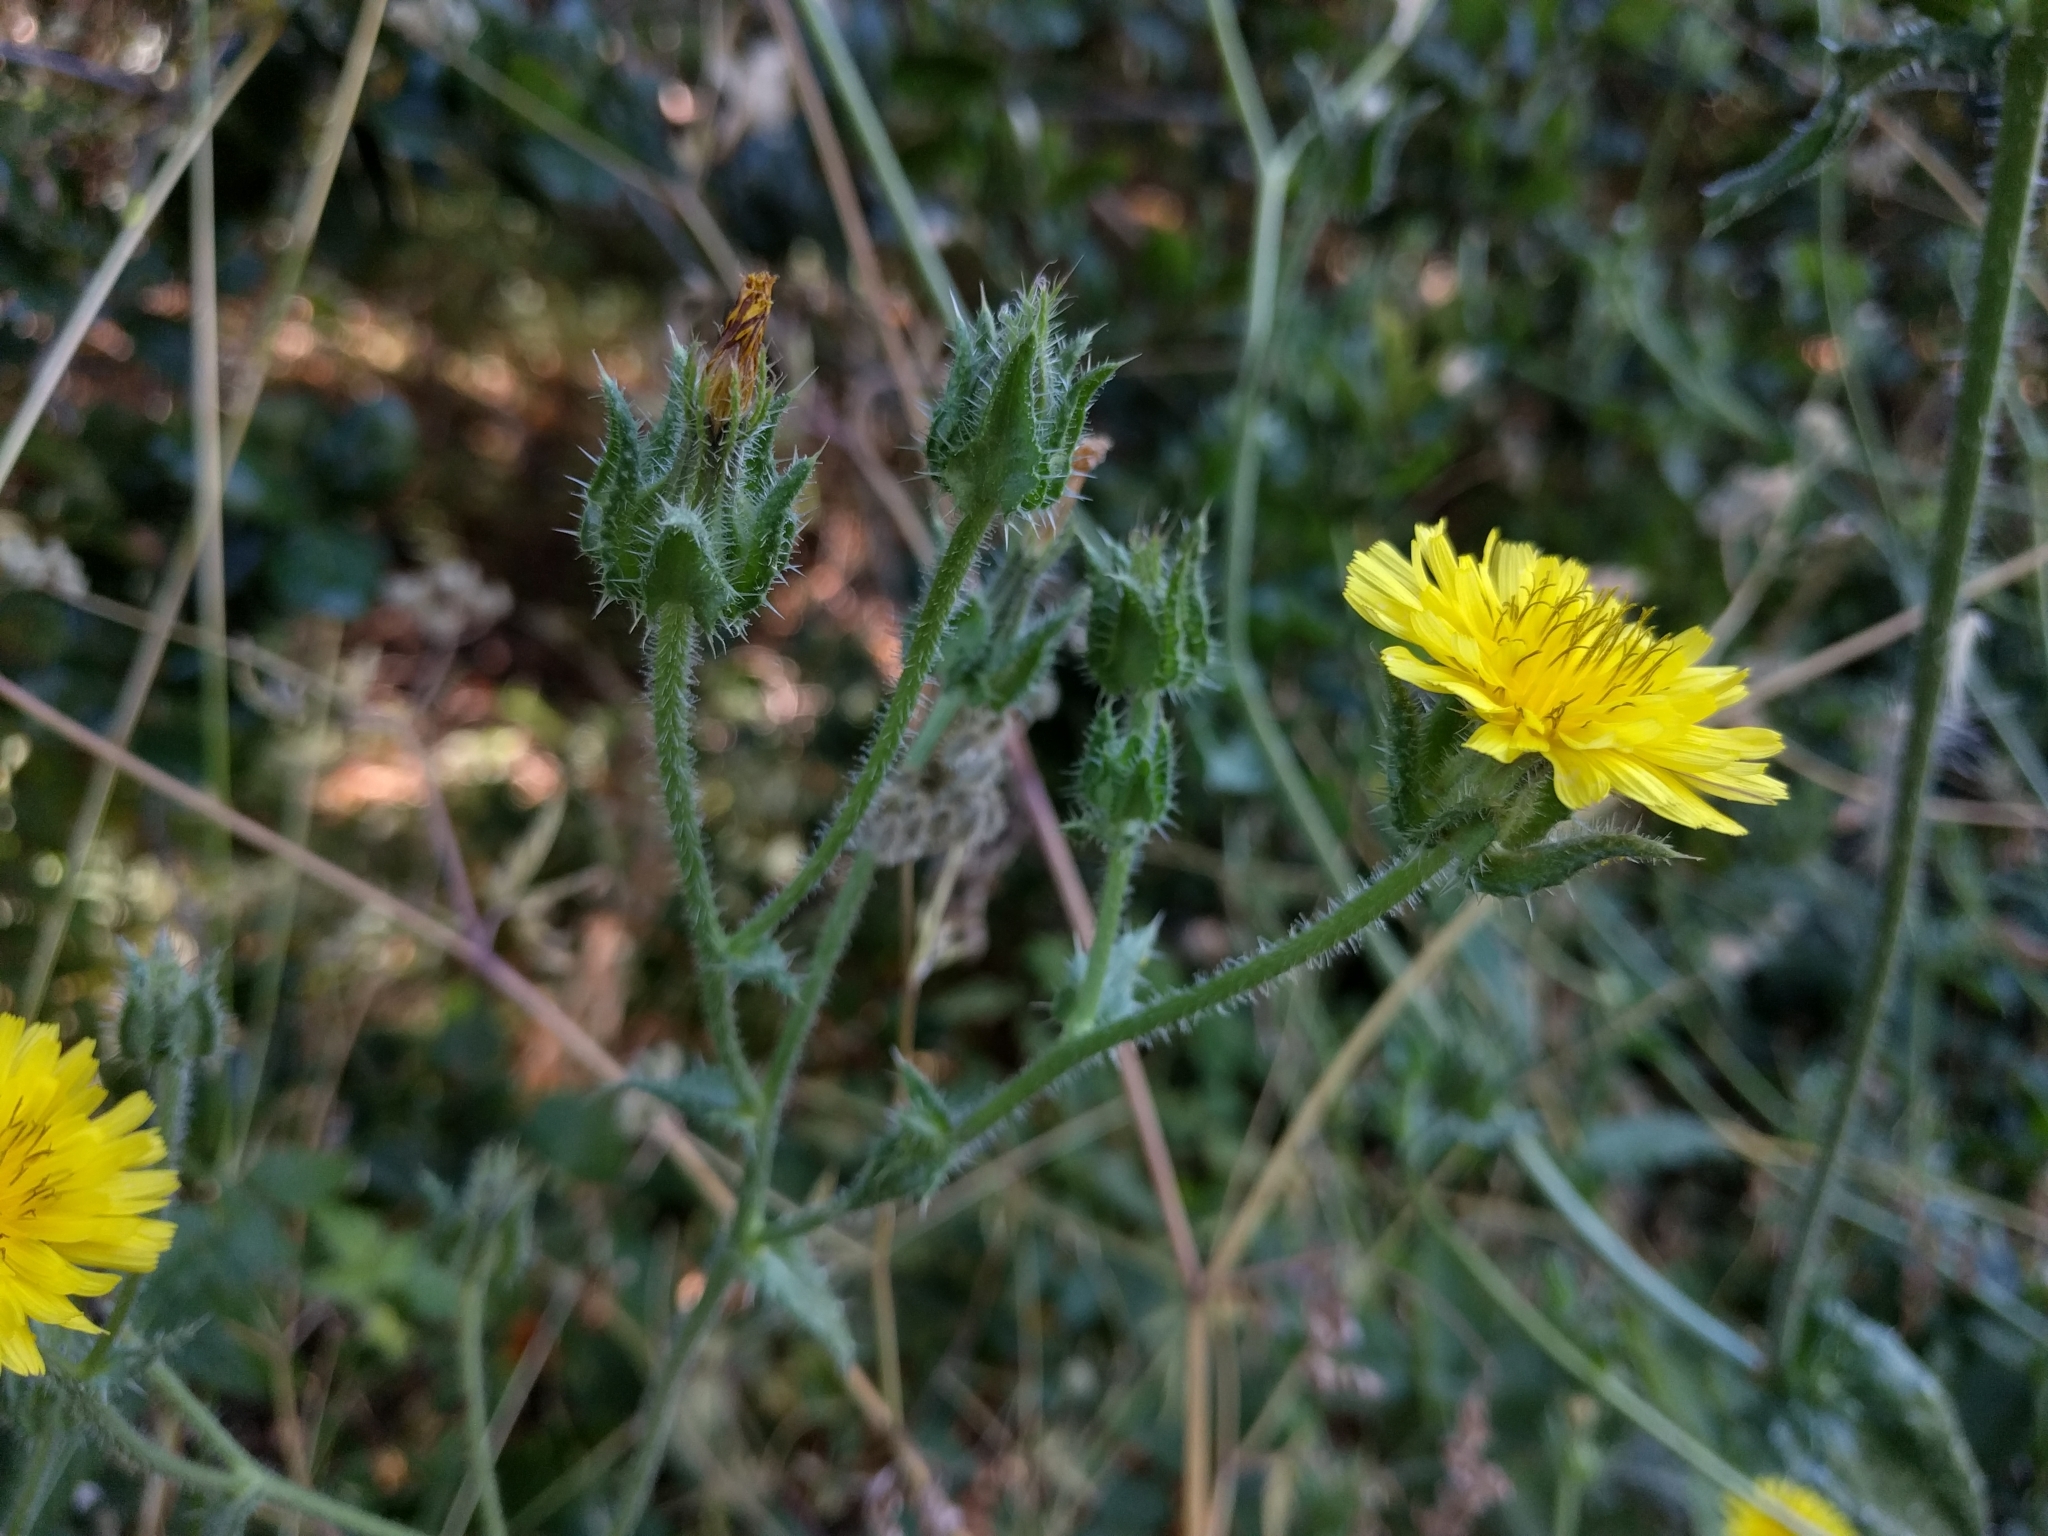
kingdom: Plantae
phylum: Tracheophyta
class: Magnoliopsida
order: Asterales
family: Asteraceae
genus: Helminthotheca
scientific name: Helminthotheca echioides
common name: Ox-tongue
